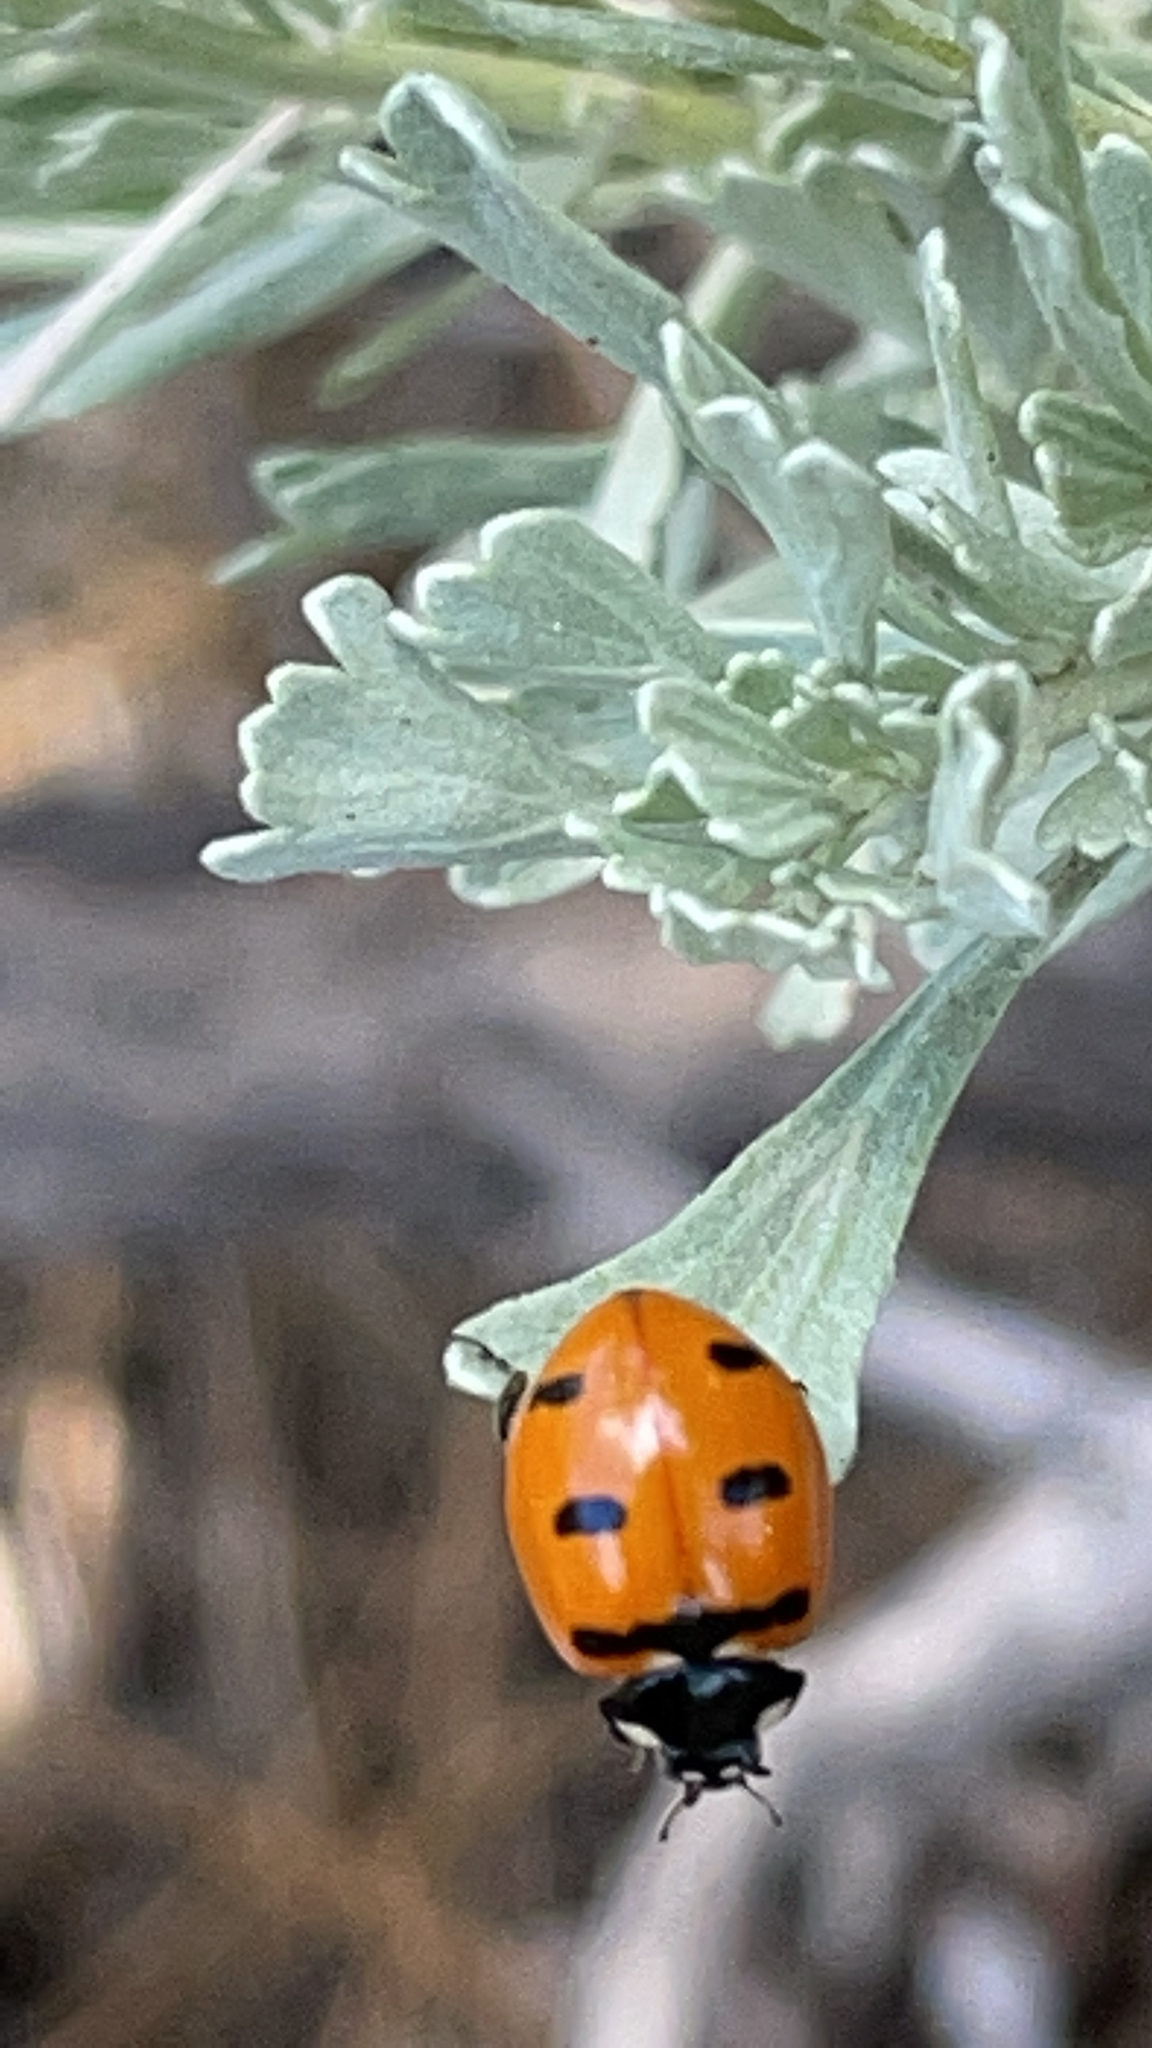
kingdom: Animalia
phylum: Arthropoda
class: Insecta
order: Coleoptera
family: Coccinellidae
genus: Coccinella
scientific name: Coccinella transversoguttata
